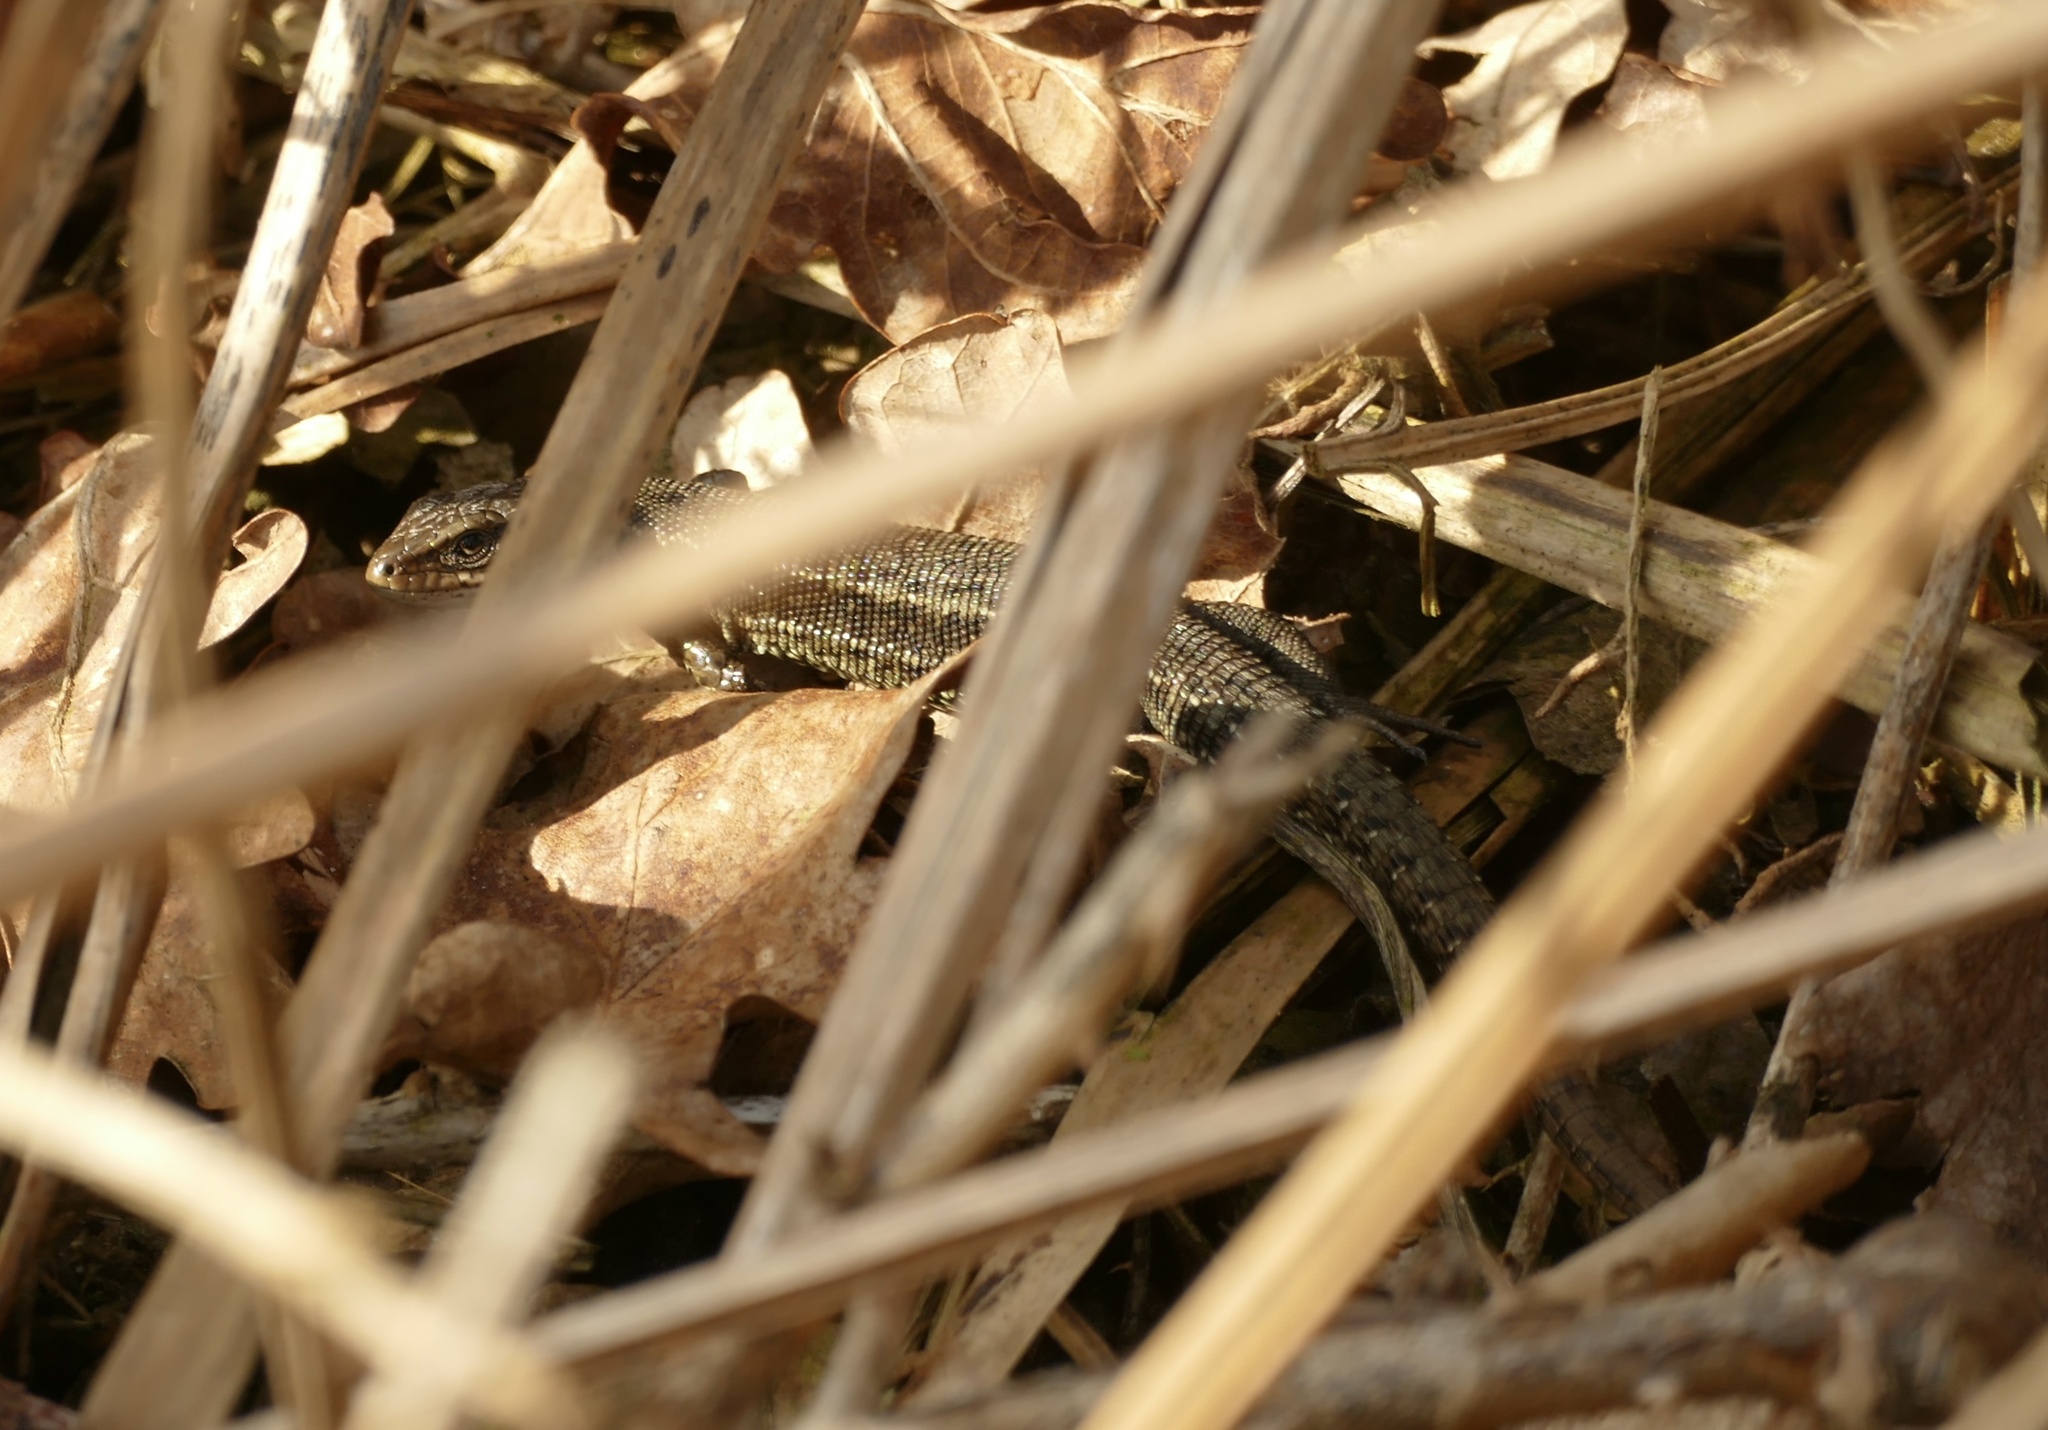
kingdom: Animalia
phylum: Chordata
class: Squamata
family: Lacertidae
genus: Zootoca
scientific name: Zootoca vivipara
